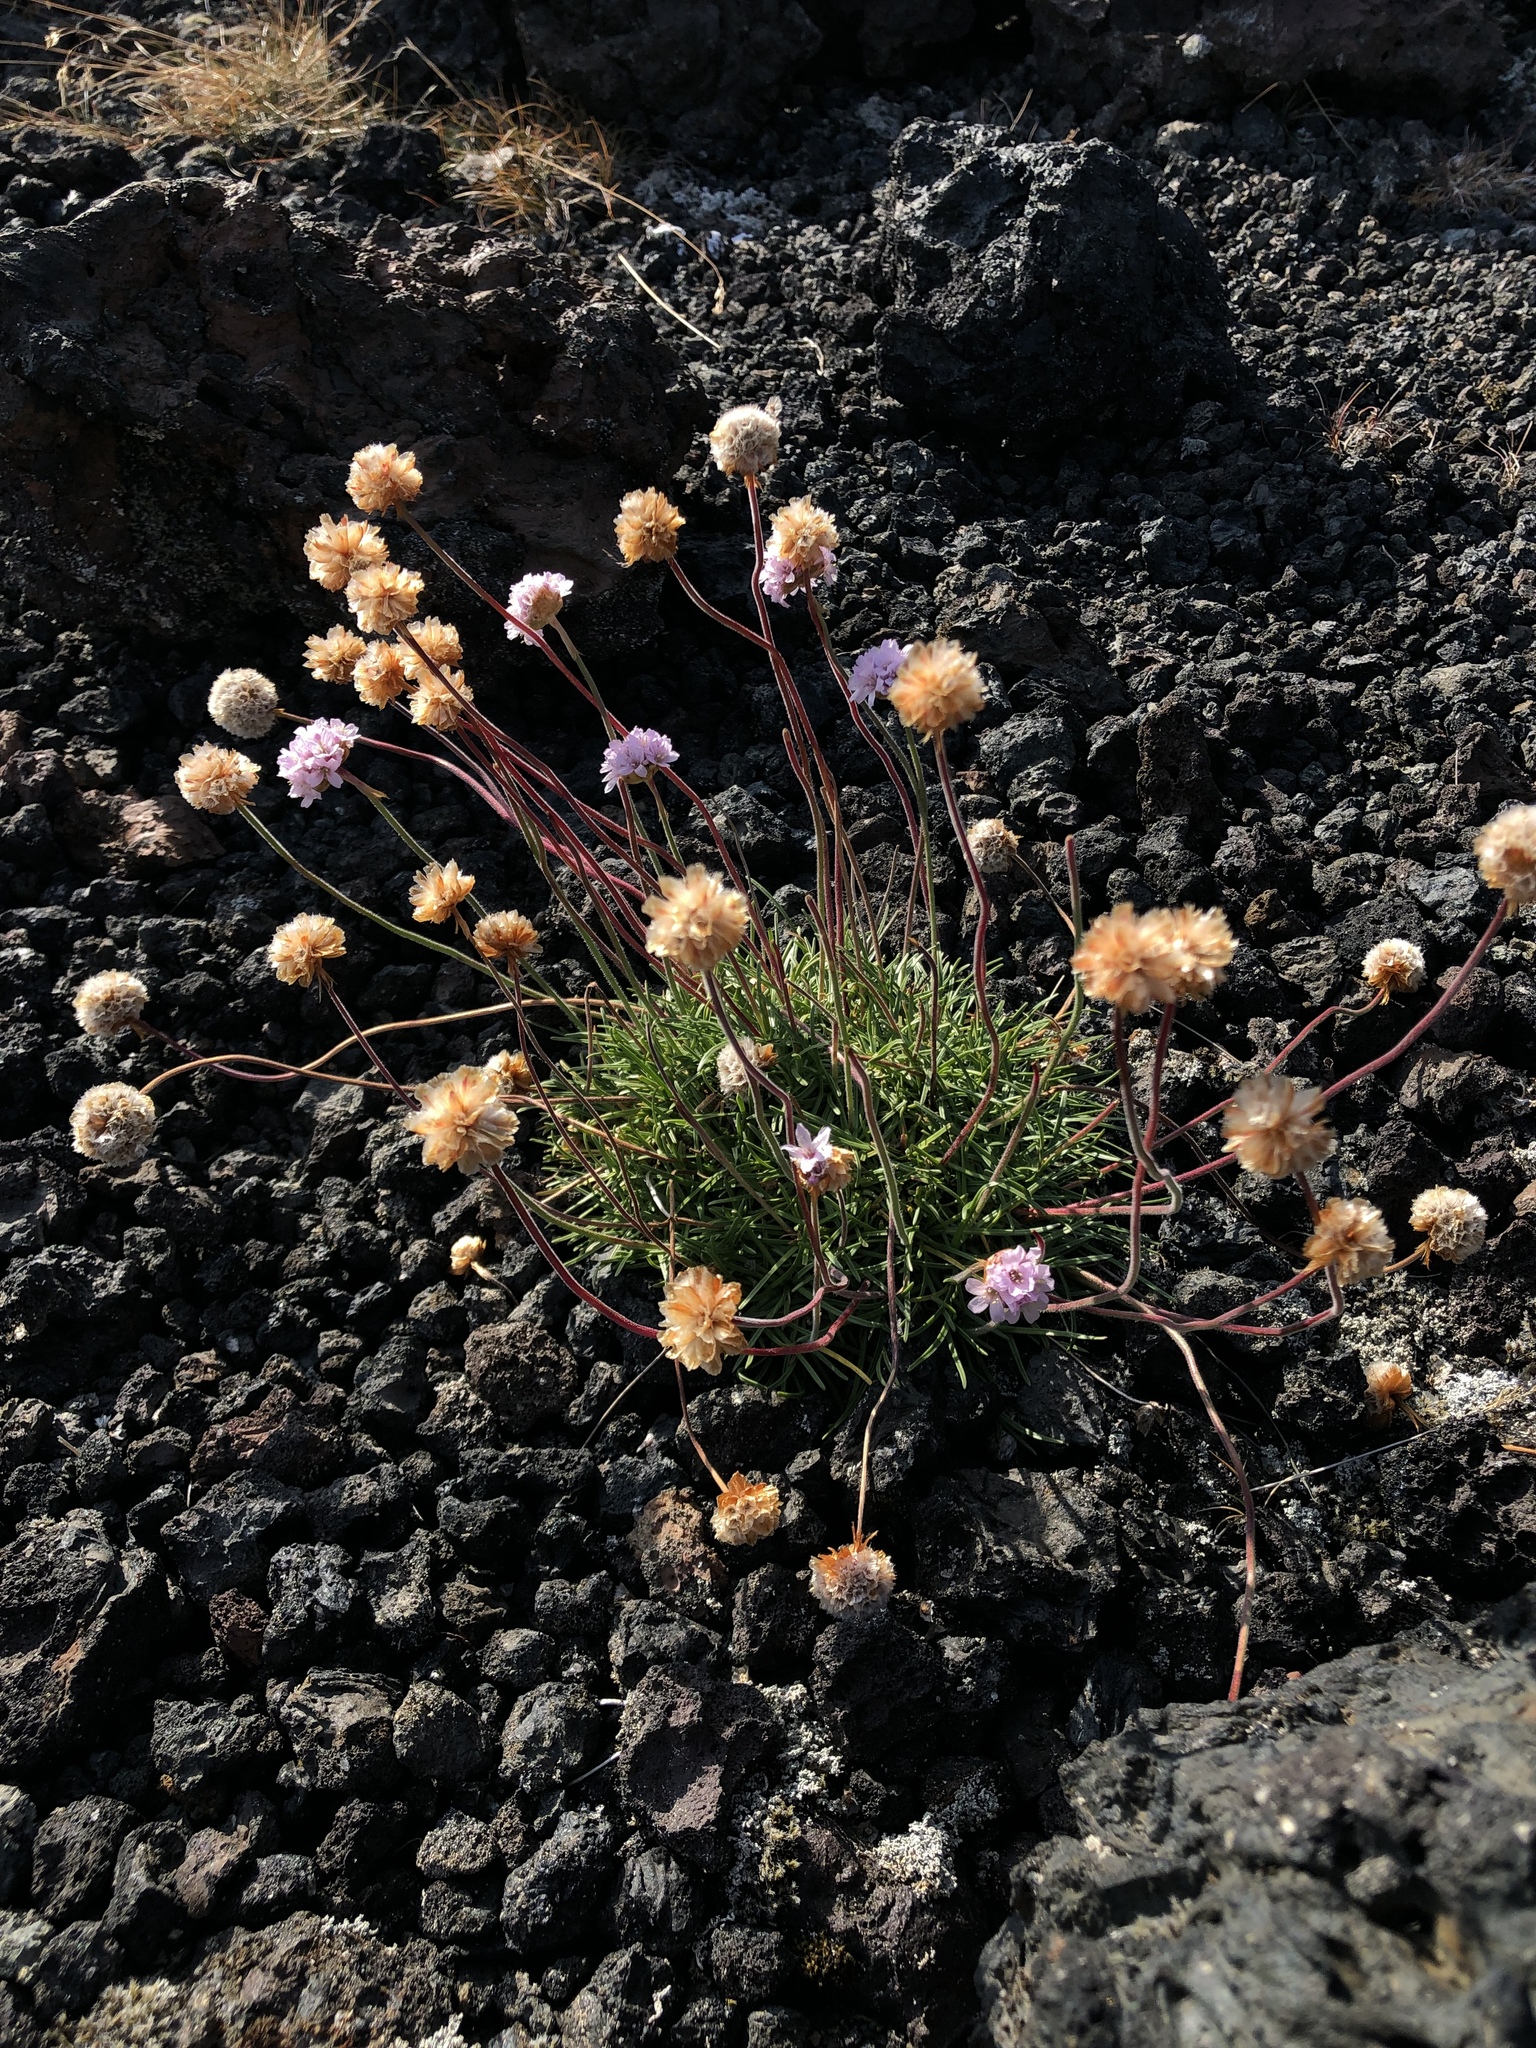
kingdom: Plantae
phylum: Tracheophyta
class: Magnoliopsida
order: Caryophyllales
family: Plumbaginaceae
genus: Armeria
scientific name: Armeria maritima
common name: Thrift
